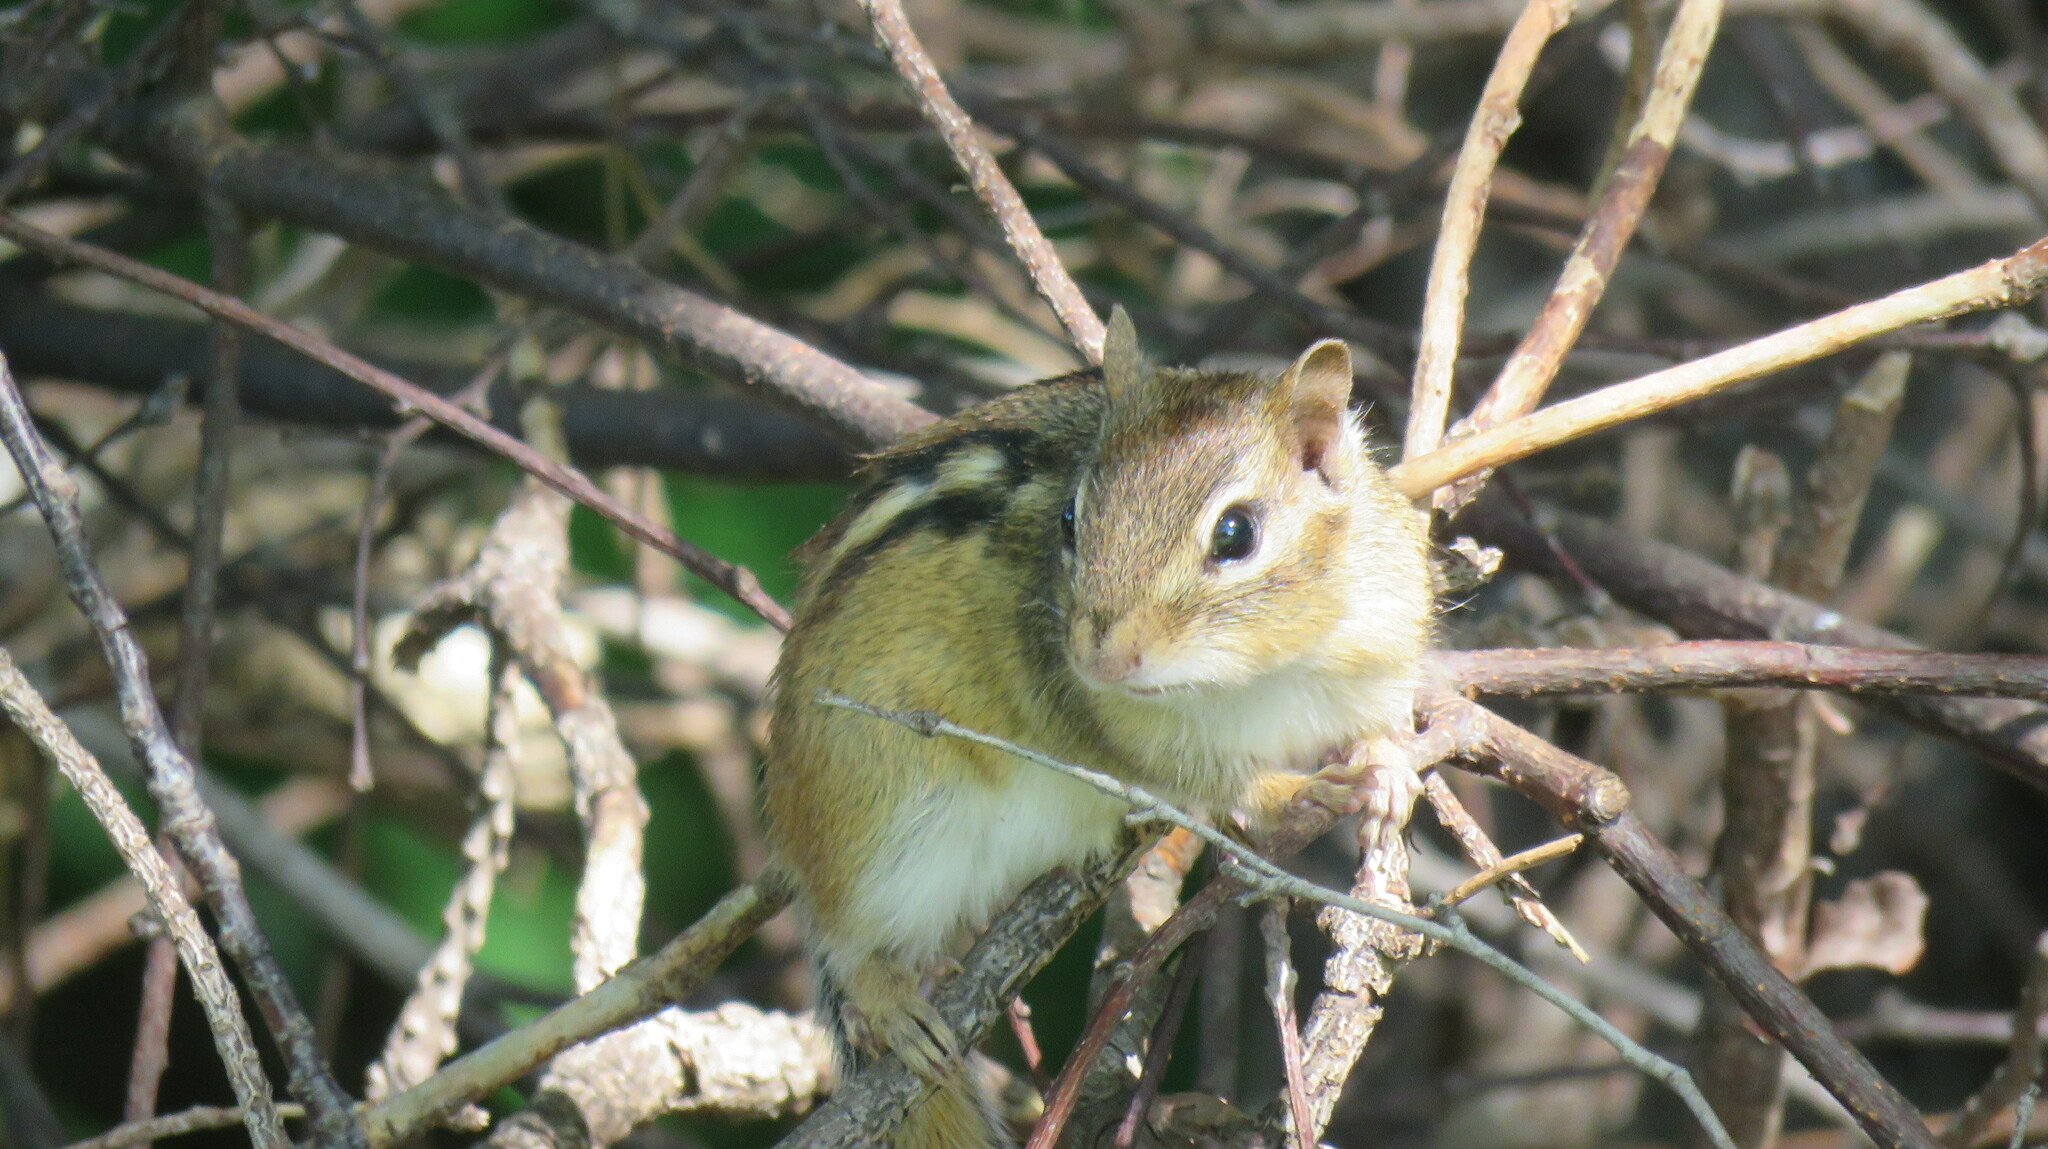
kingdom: Animalia
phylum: Chordata
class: Mammalia
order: Rodentia
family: Sciuridae
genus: Tamias
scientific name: Tamias striatus
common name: Eastern chipmunk
